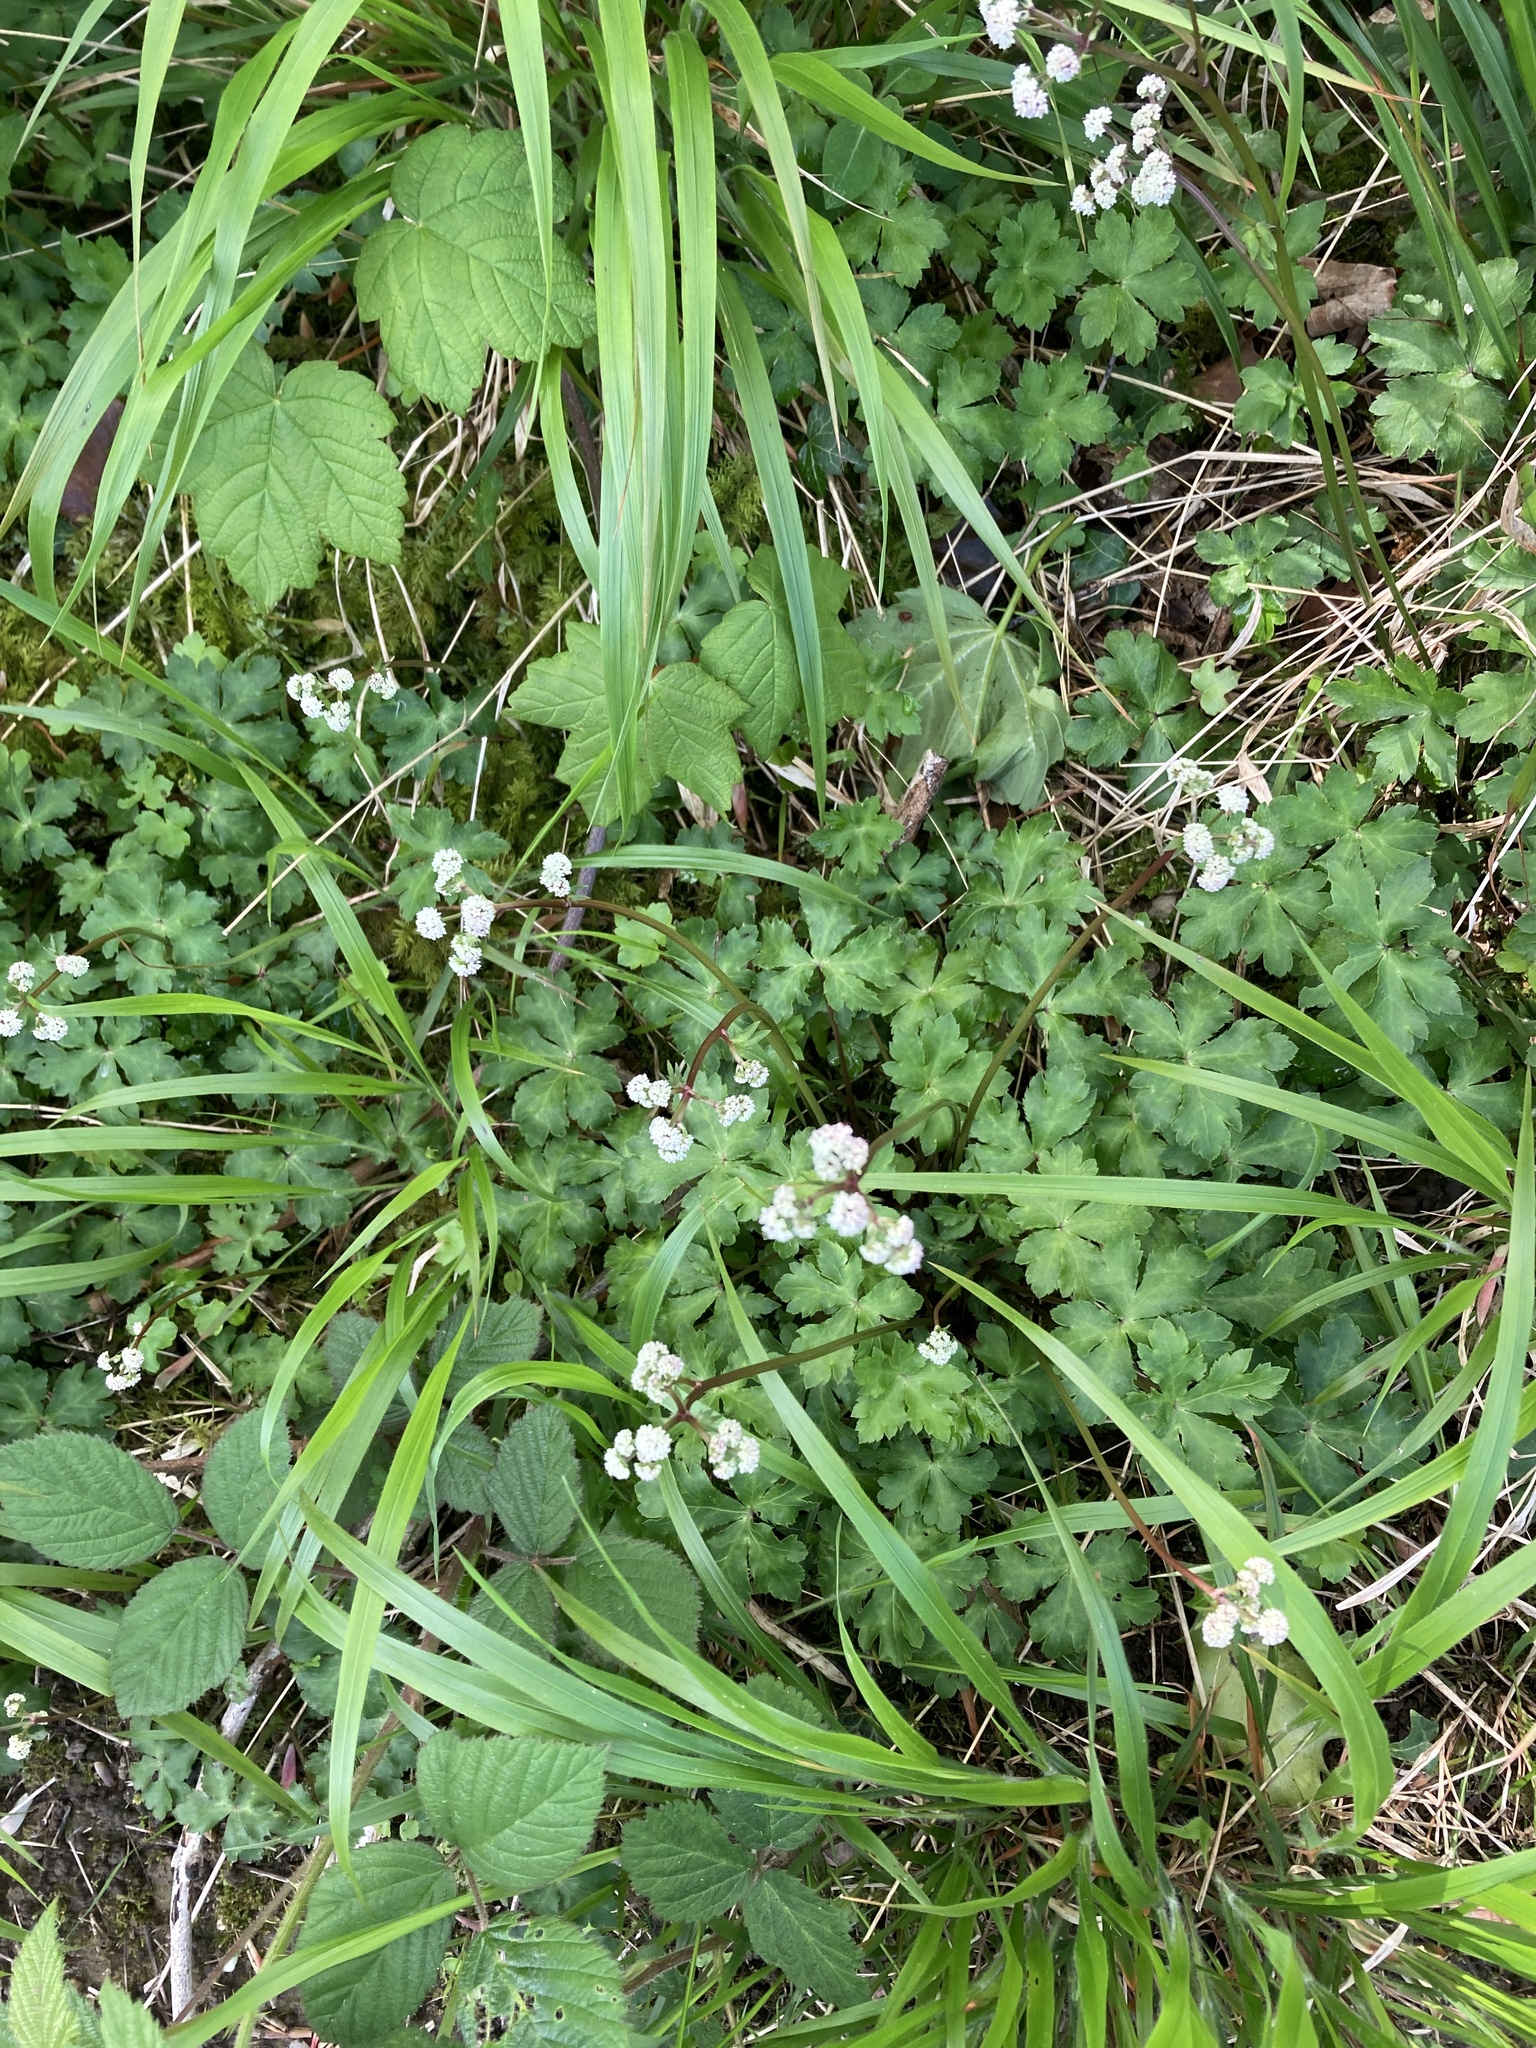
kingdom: Plantae
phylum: Tracheophyta
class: Magnoliopsida
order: Apiales
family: Apiaceae
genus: Sanicula
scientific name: Sanicula europaea
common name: Sanicle
